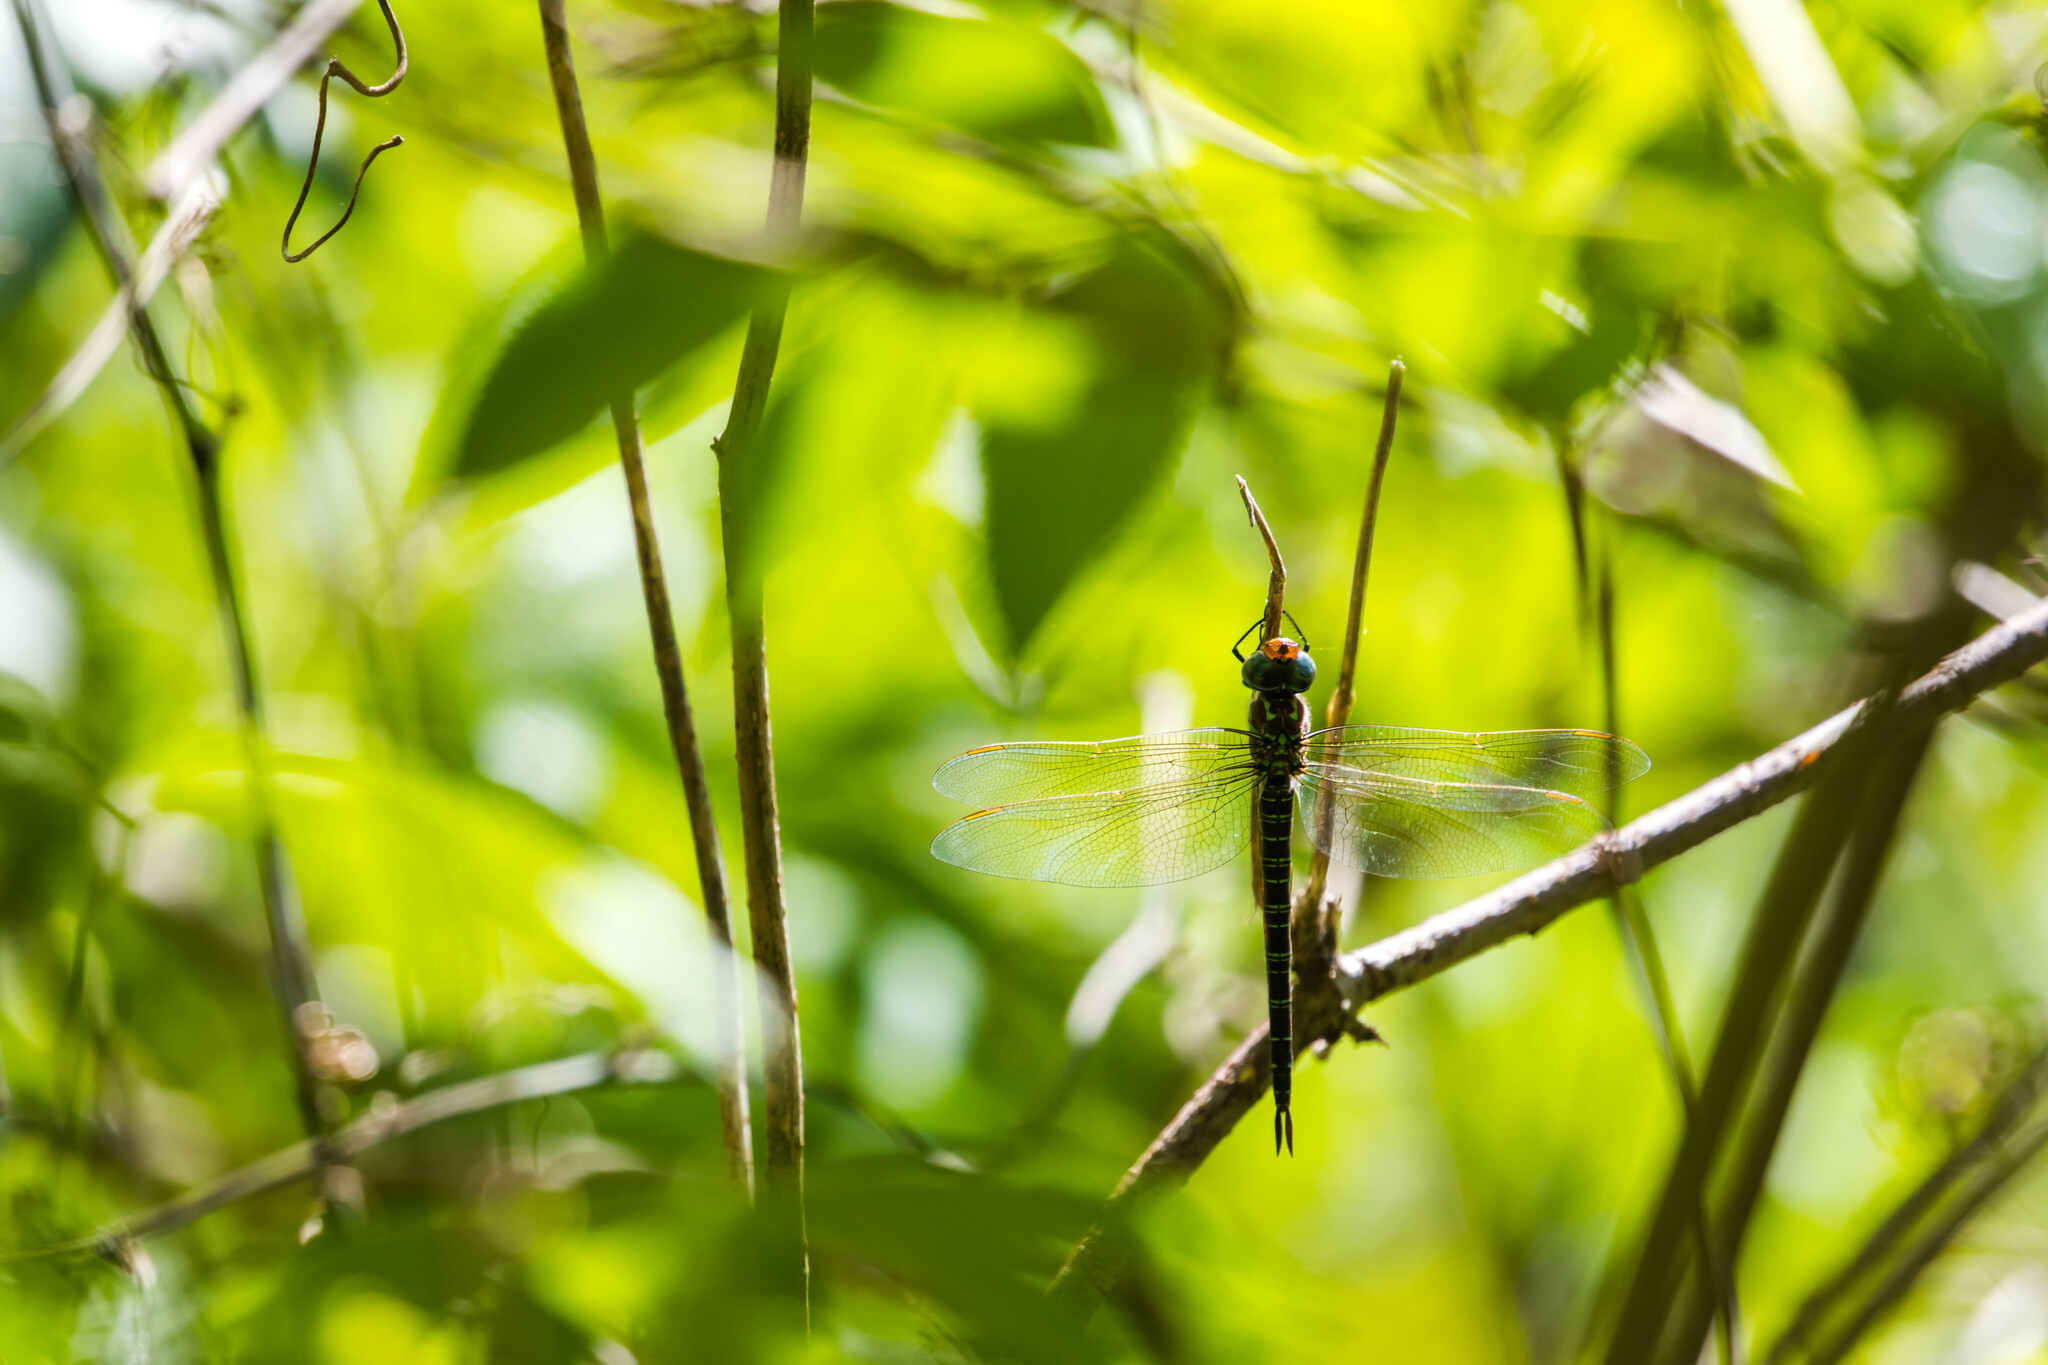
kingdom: Animalia
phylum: Arthropoda
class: Insecta
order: Odonata
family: Aeshnidae
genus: Epiaeschna
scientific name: Epiaeschna heros
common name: Swamp darner
